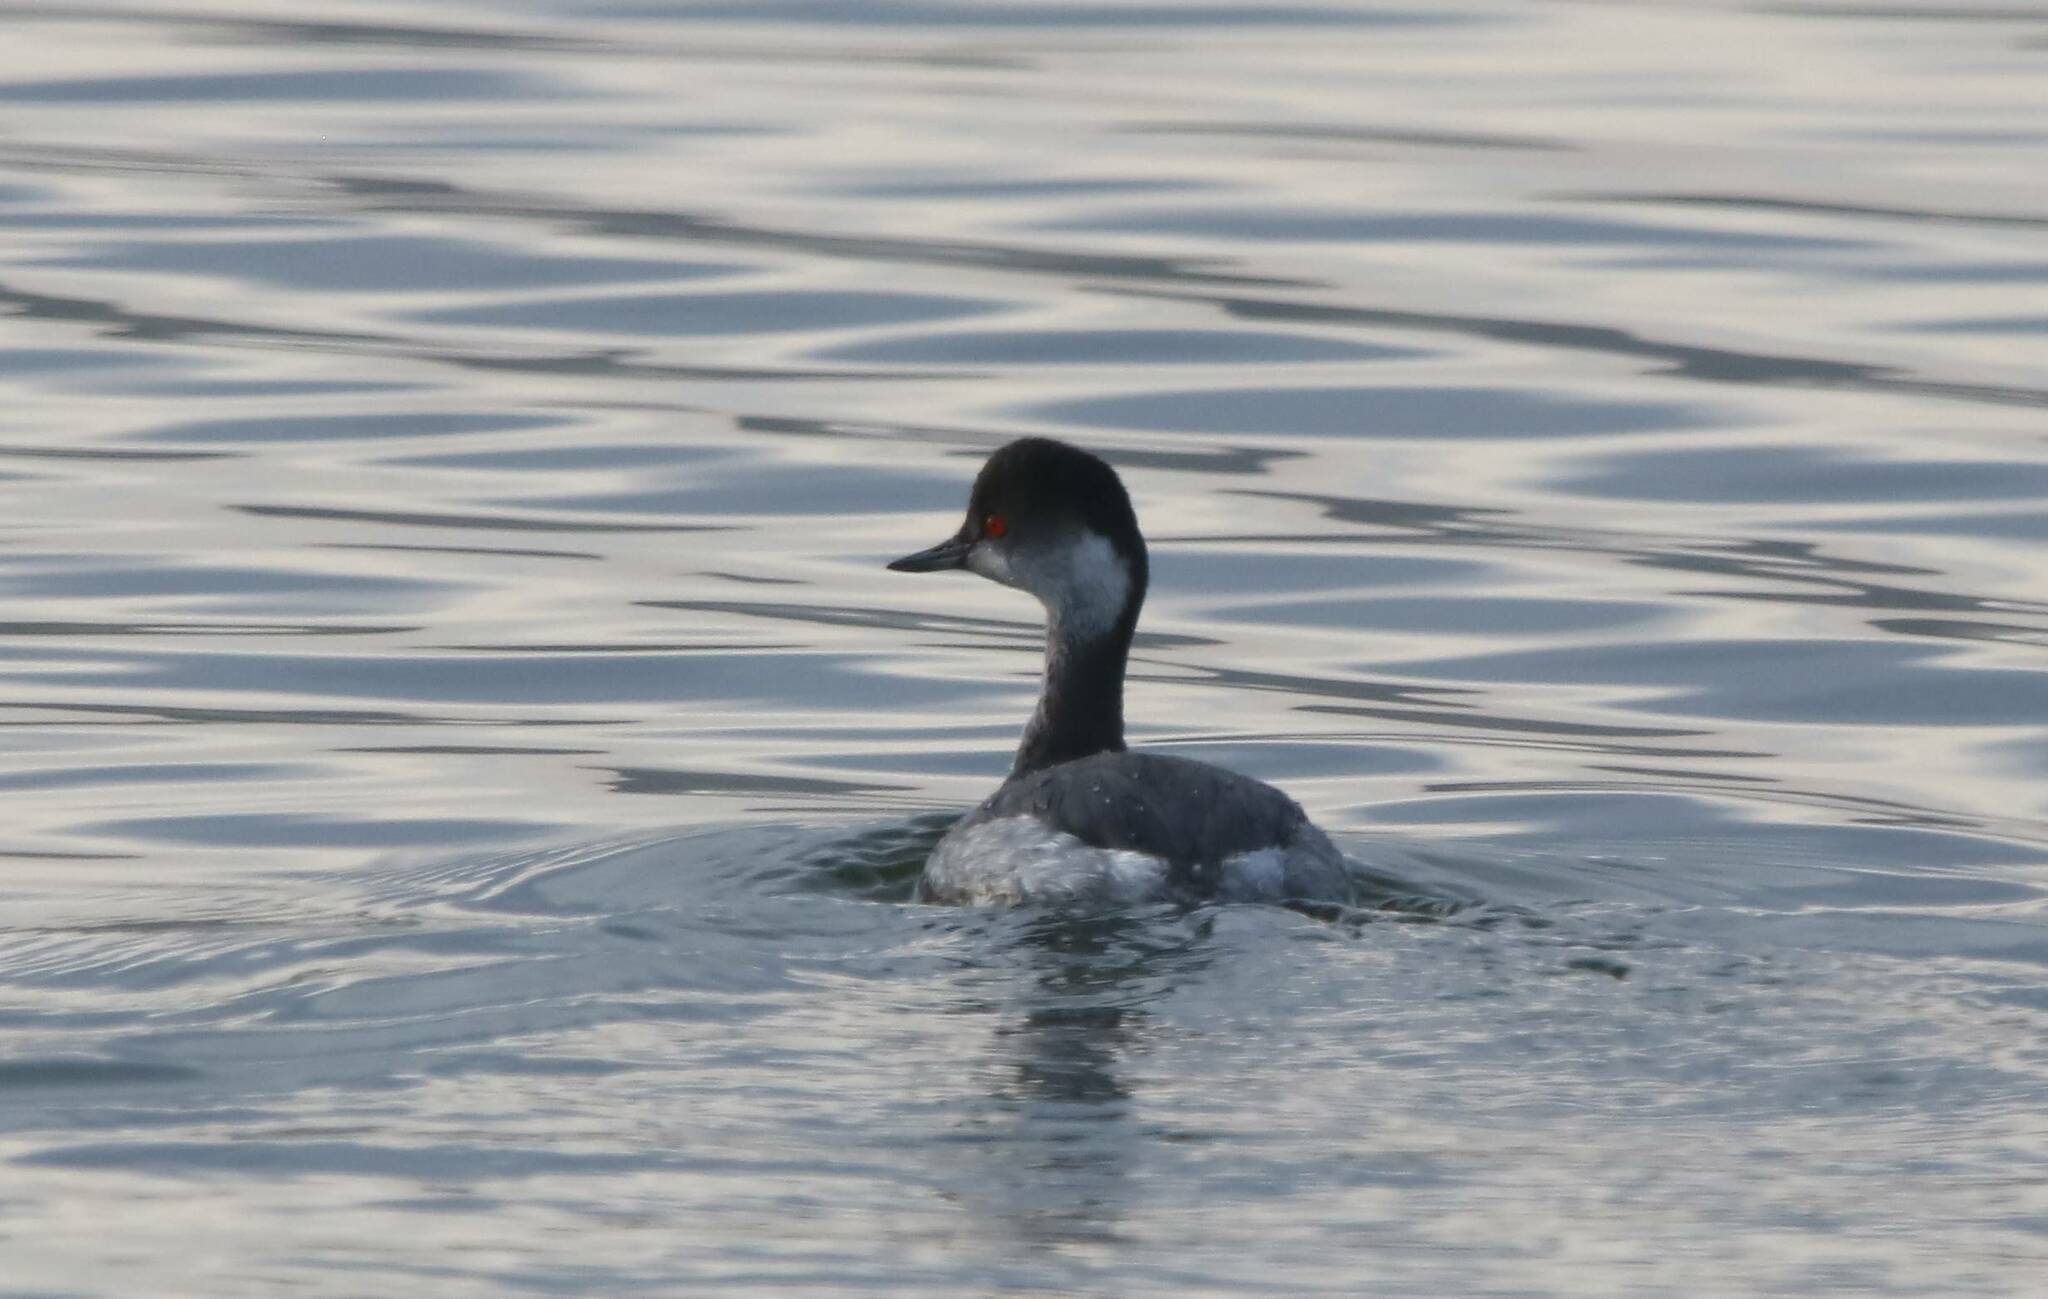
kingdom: Animalia
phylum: Chordata
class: Aves
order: Podicipediformes
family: Podicipedidae
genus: Podiceps
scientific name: Podiceps nigricollis
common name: Black-necked grebe
